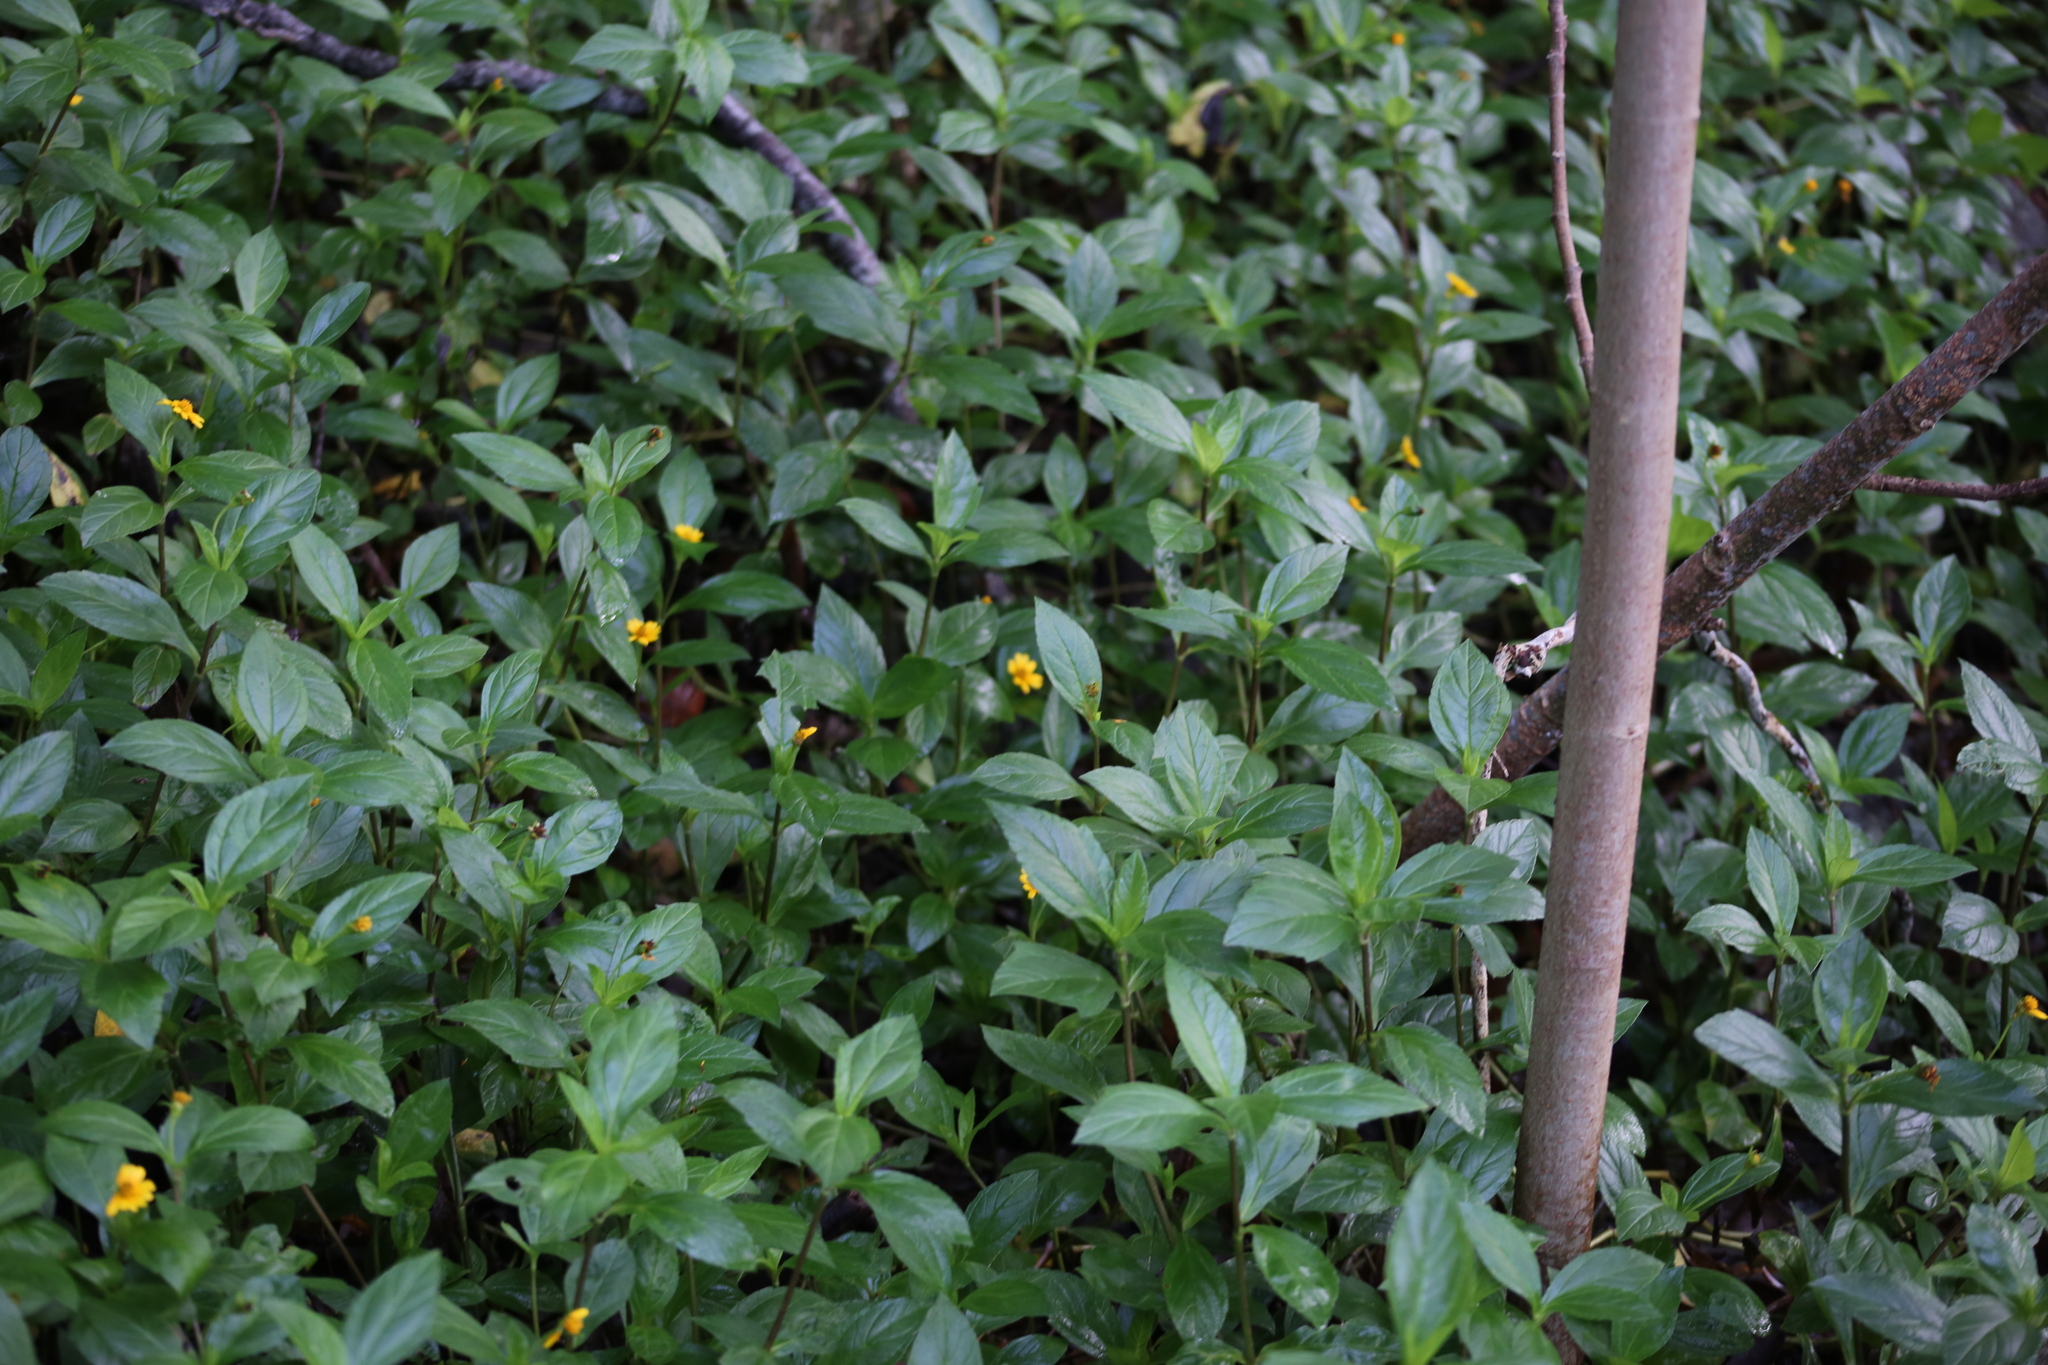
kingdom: Plantae
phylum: Tracheophyta
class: Magnoliopsida
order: Asterales
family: Asteraceae
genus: Sphagneticola
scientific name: Sphagneticola trilobata
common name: Bay biscayne creeping-oxeye
